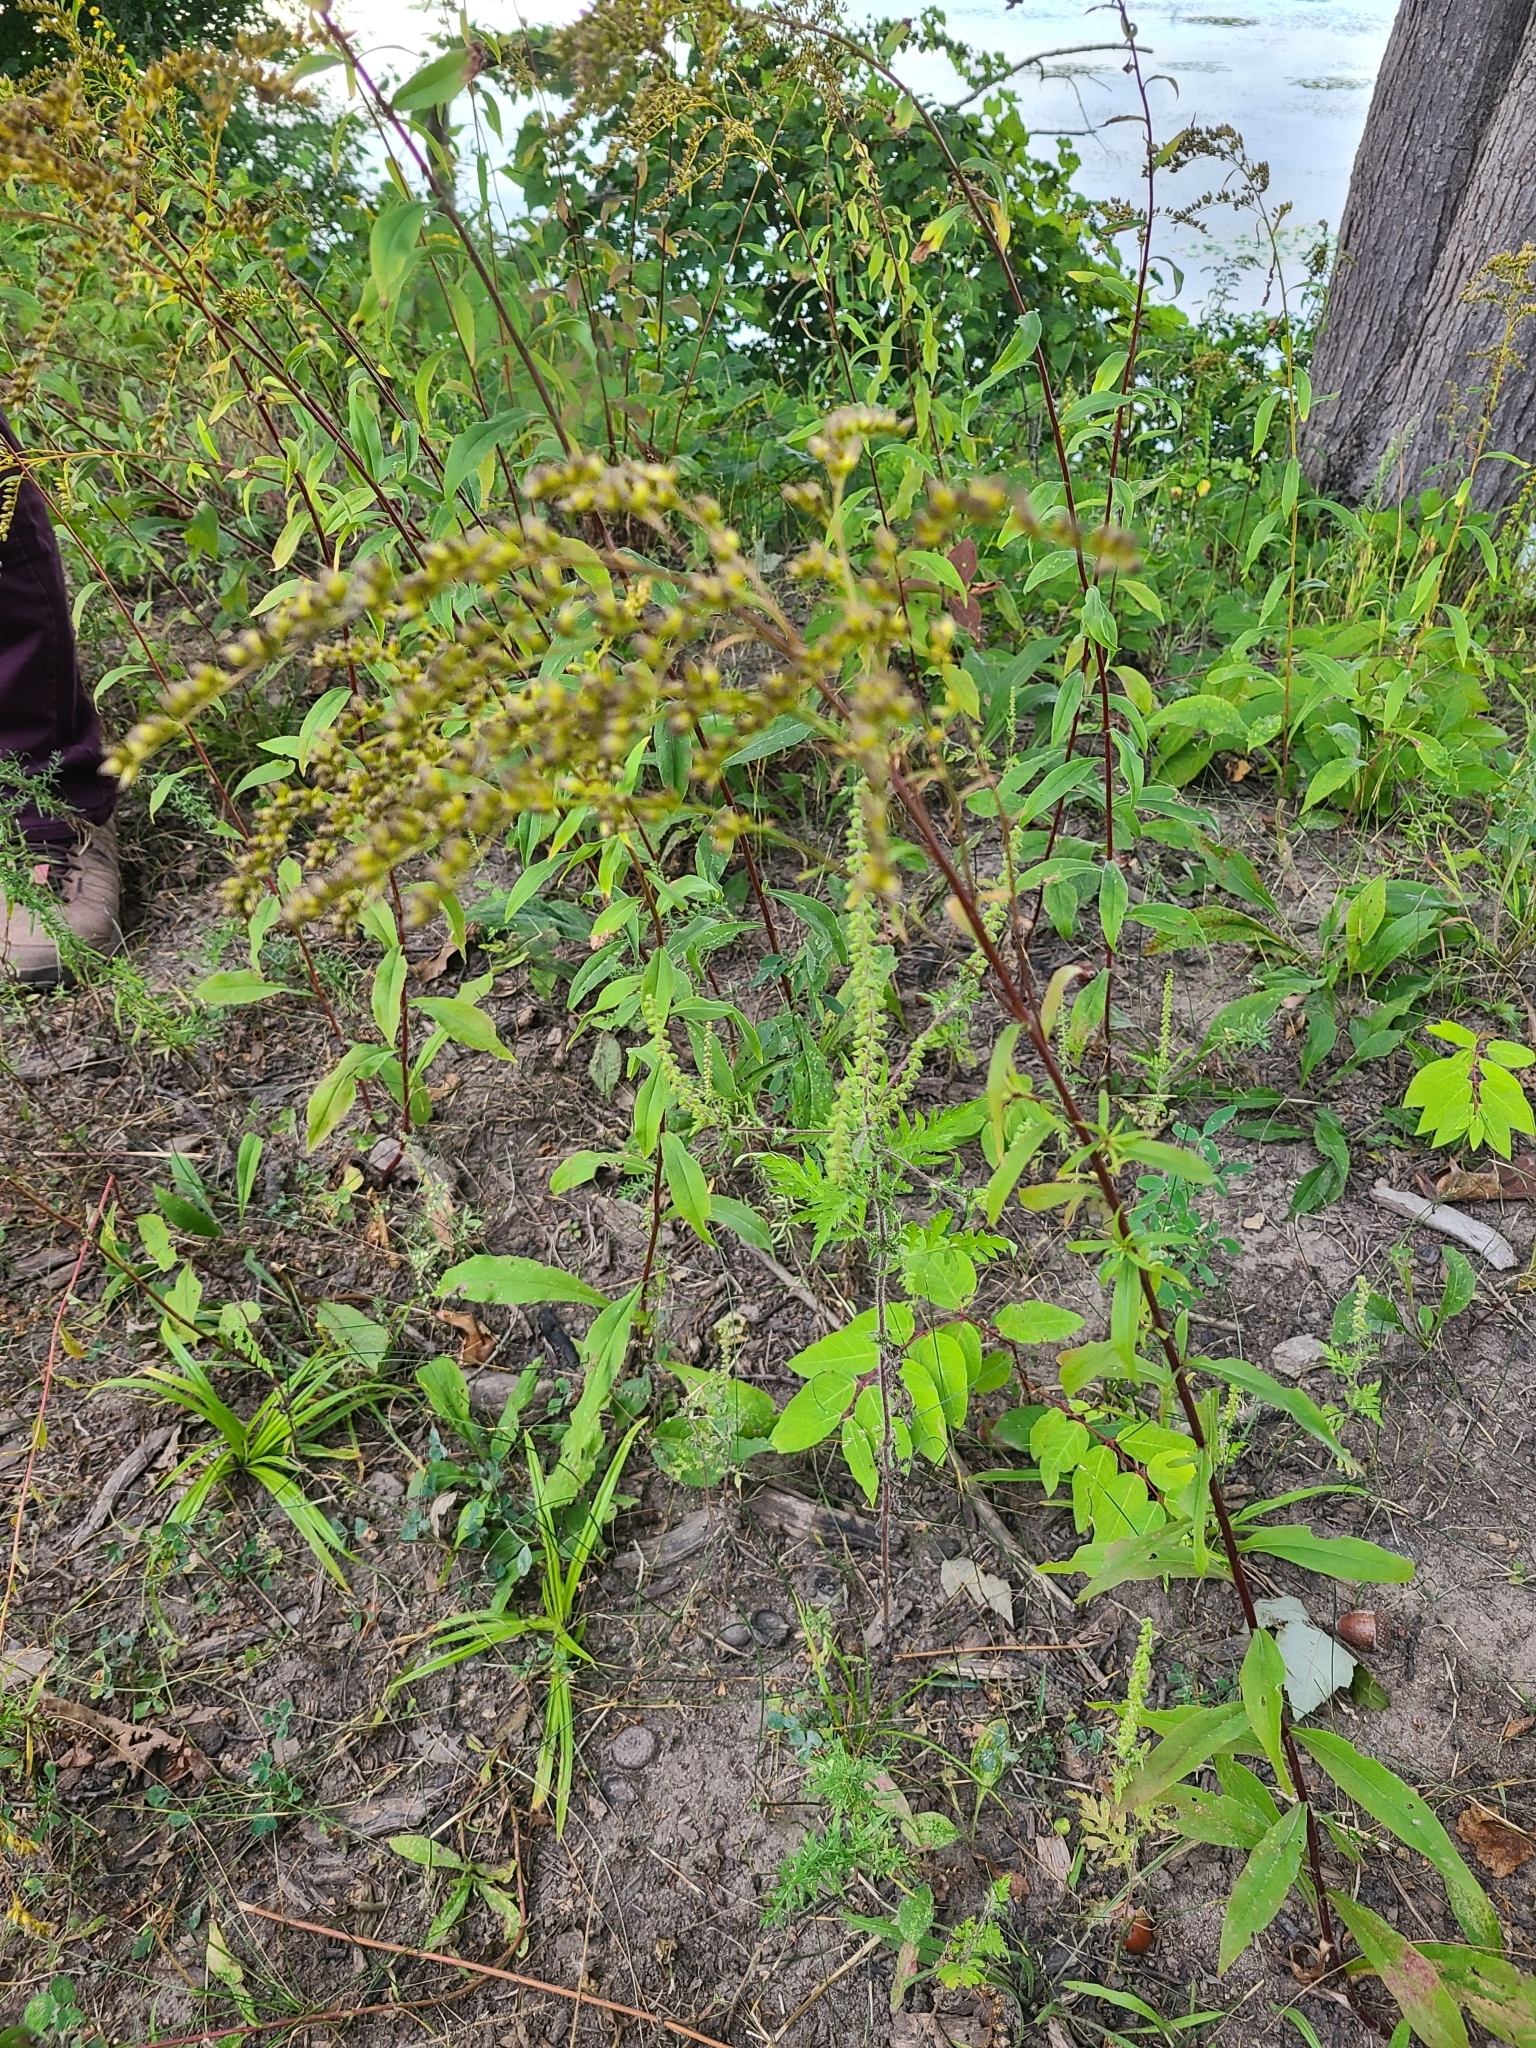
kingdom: Plantae
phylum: Tracheophyta
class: Magnoliopsida
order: Asterales
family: Asteraceae
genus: Solidago
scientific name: Solidago juncea
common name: Early goldenrod
